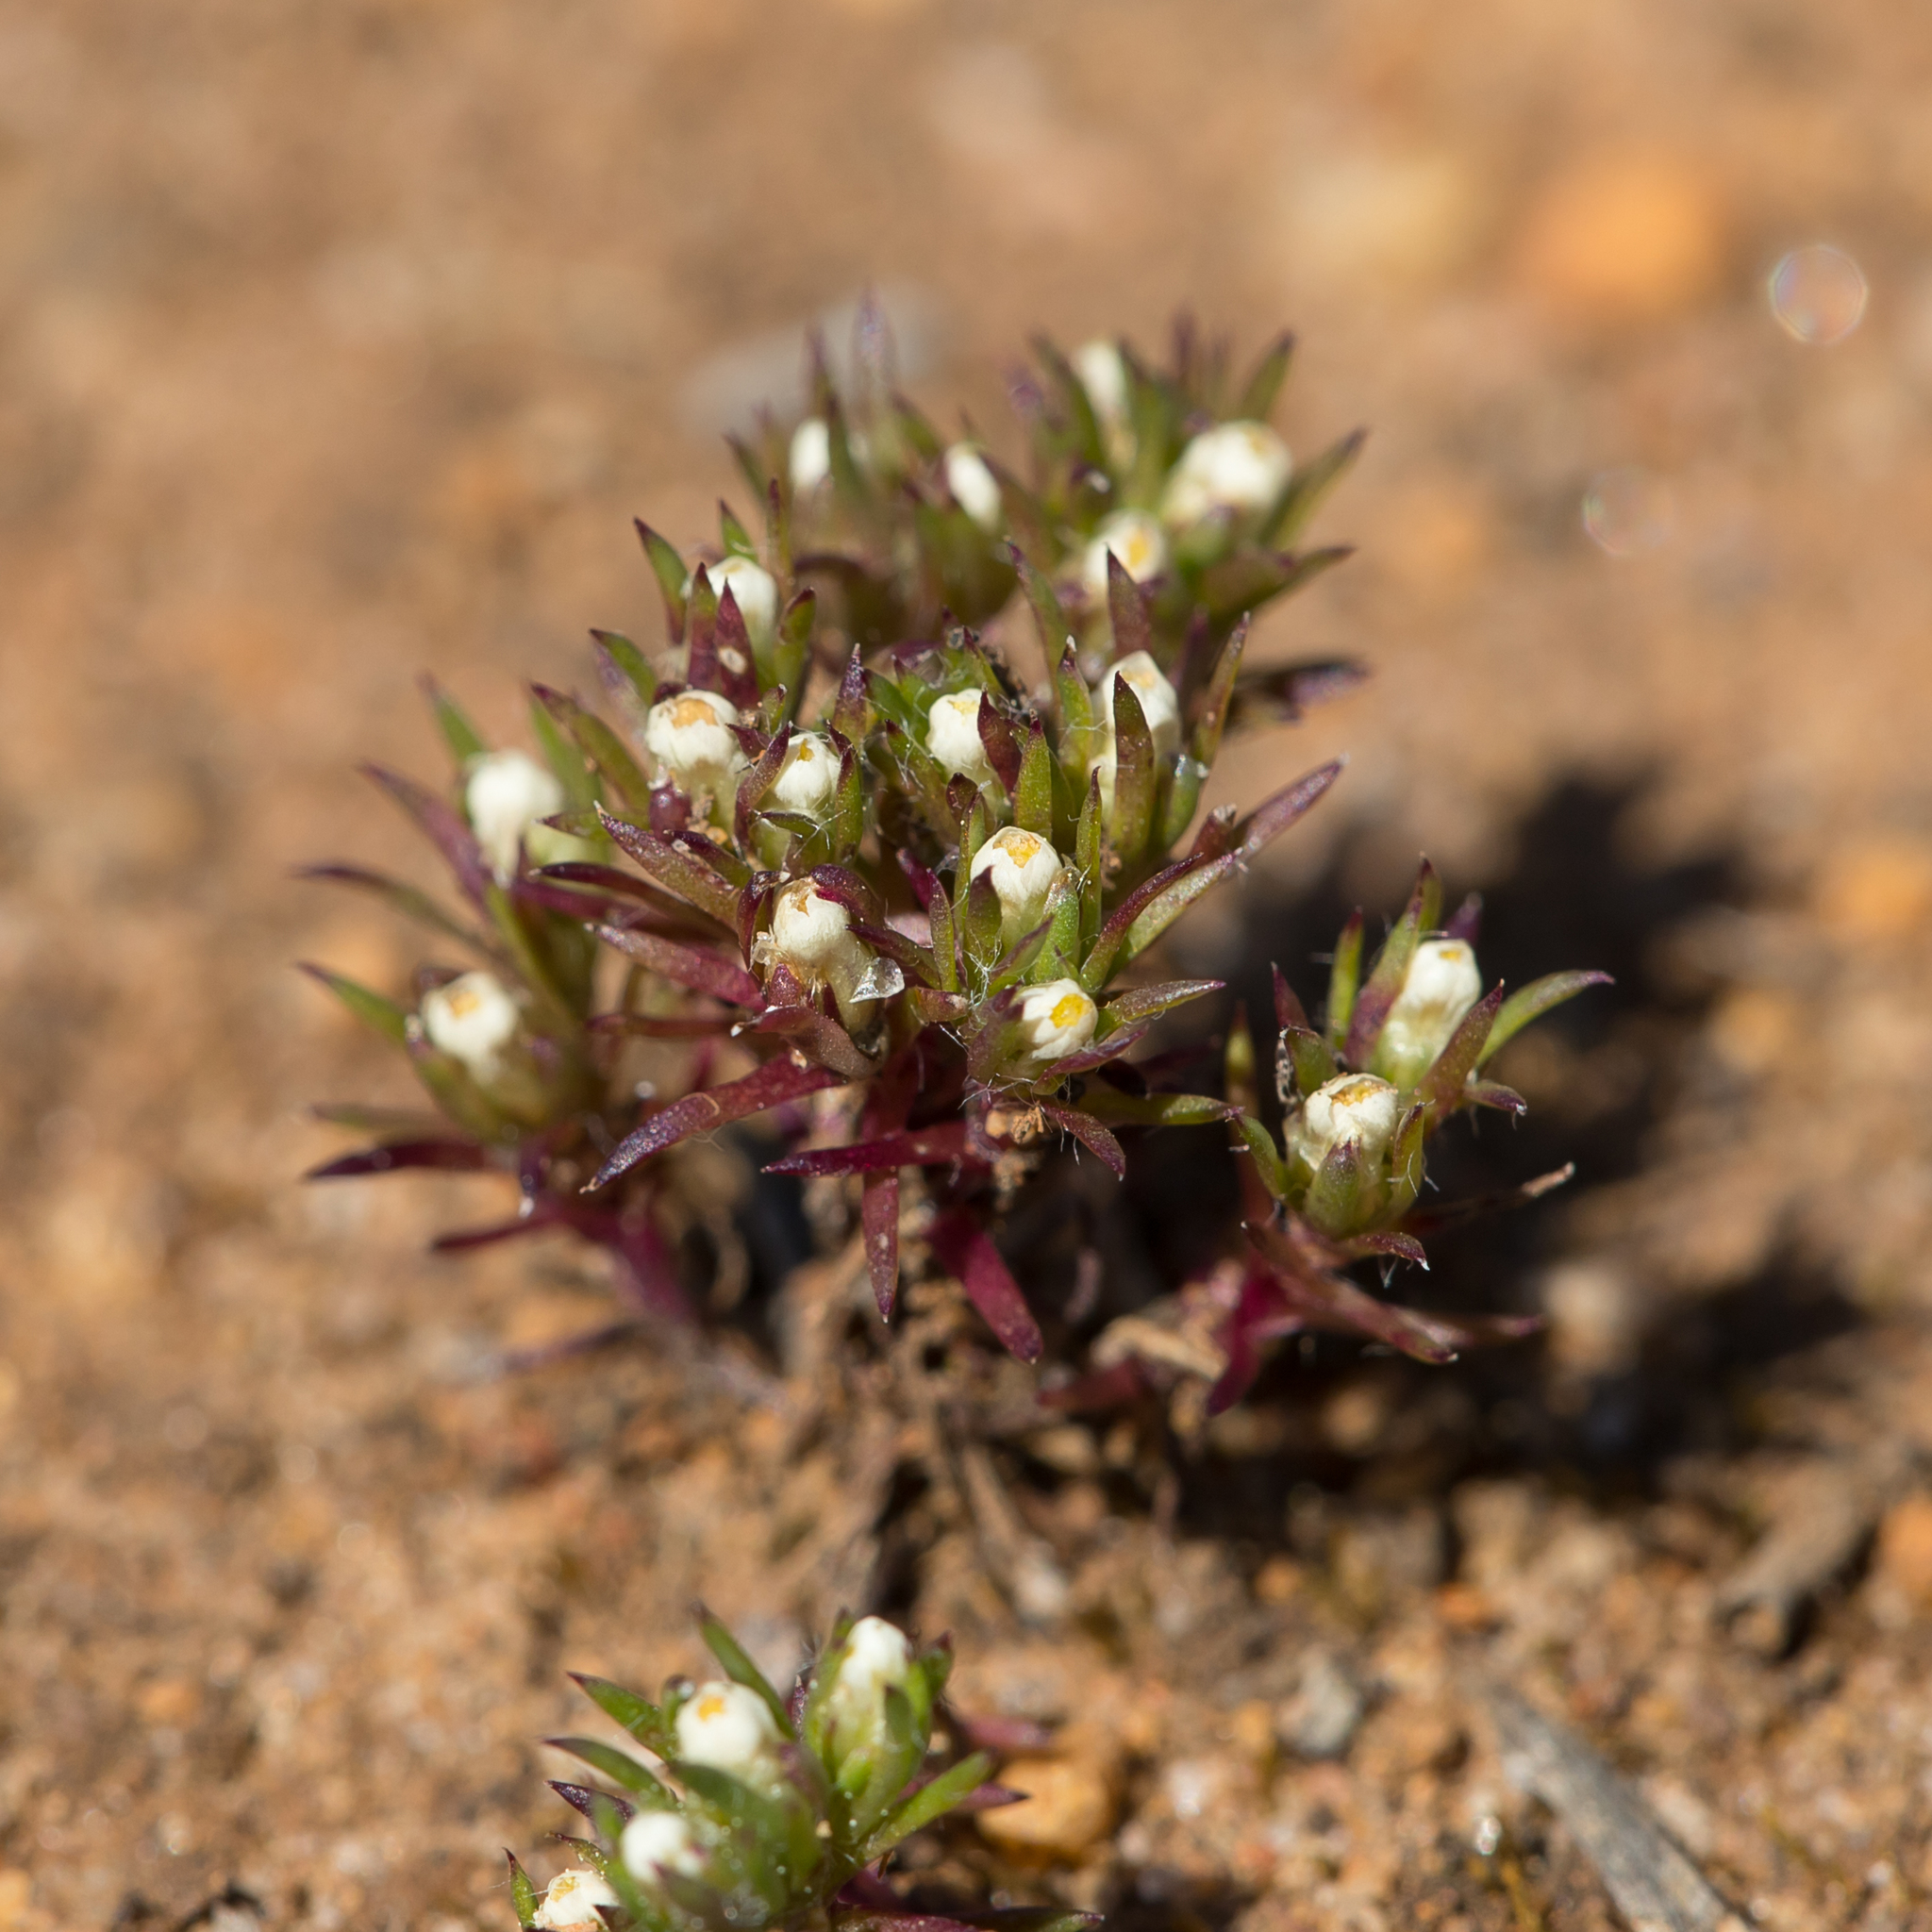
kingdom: Plantae
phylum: Tracheophyta
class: Magnoliopsida
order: Asterales
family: Asteraceae
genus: Hyalosperma
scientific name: Hyalosperma demissum
